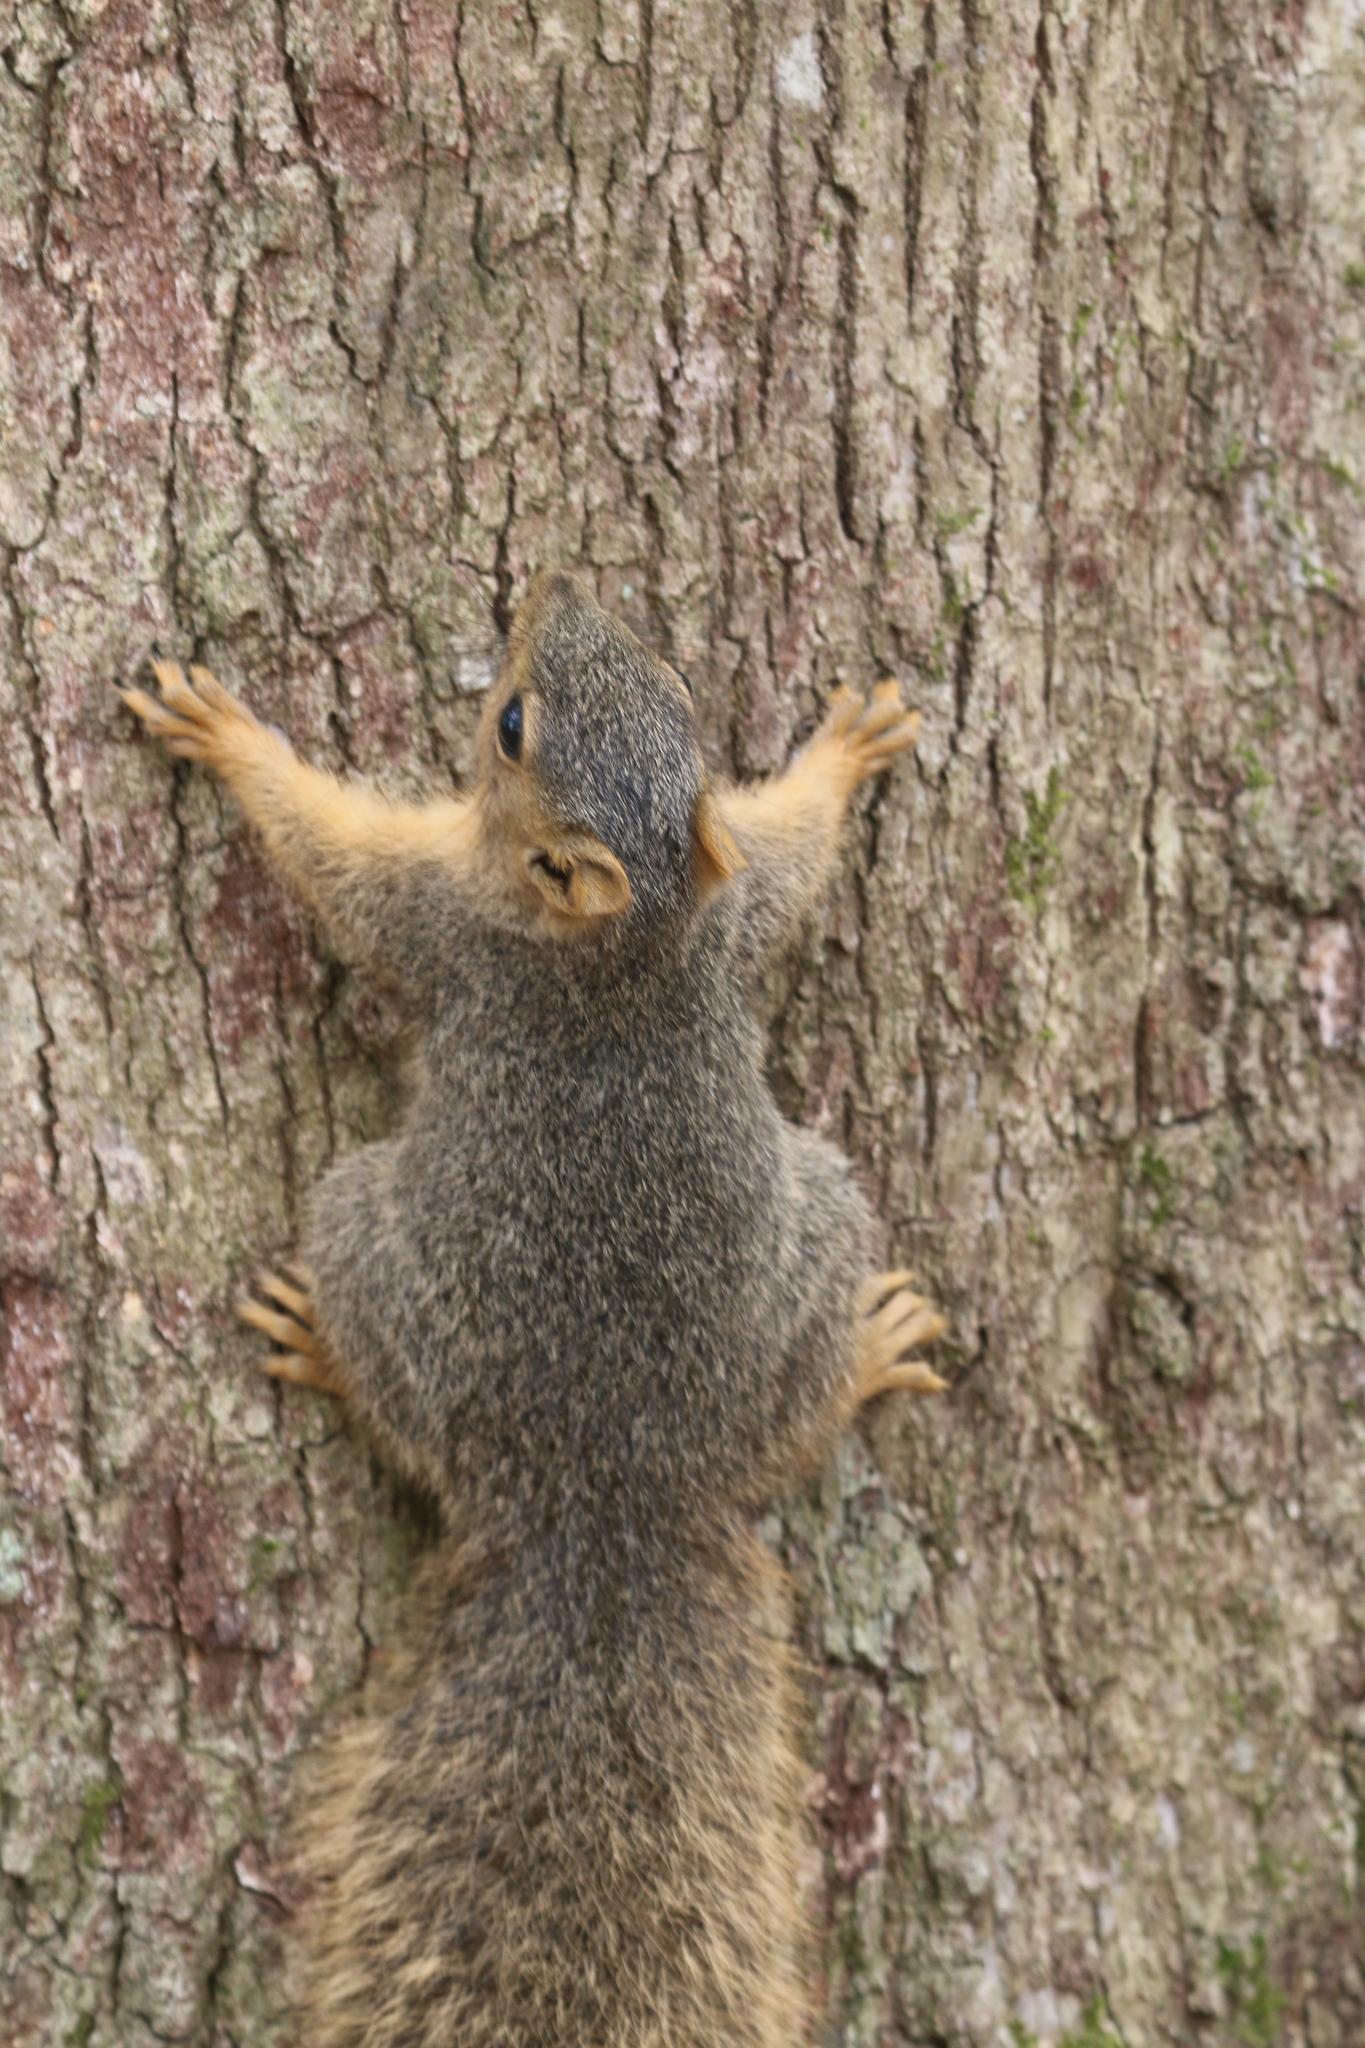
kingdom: Animalia
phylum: Chordata
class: Mammalia
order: Rodentia
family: Sciuridae
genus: Sciurus
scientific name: Sciurus niger
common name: Fox squirrel
